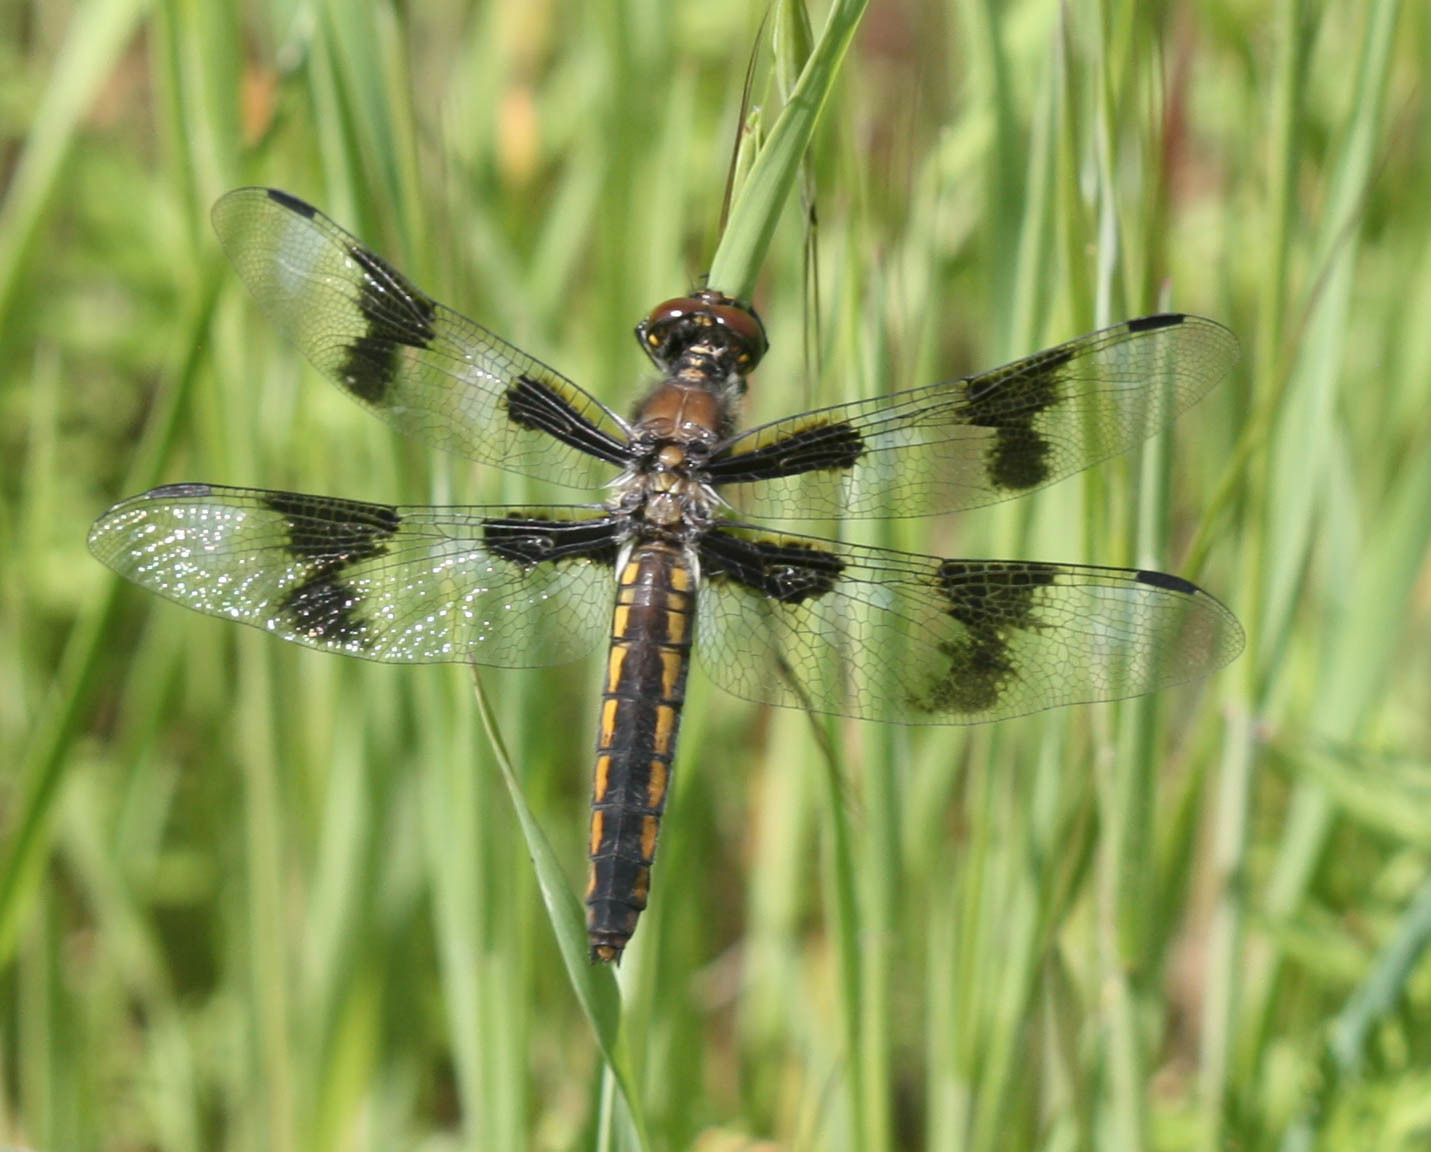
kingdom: Animalia
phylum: Arthropoda
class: Insecta
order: Odonata
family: Libellulidae
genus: Libellula
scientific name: Libellula forensis
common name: Eight-spotted skimmer
